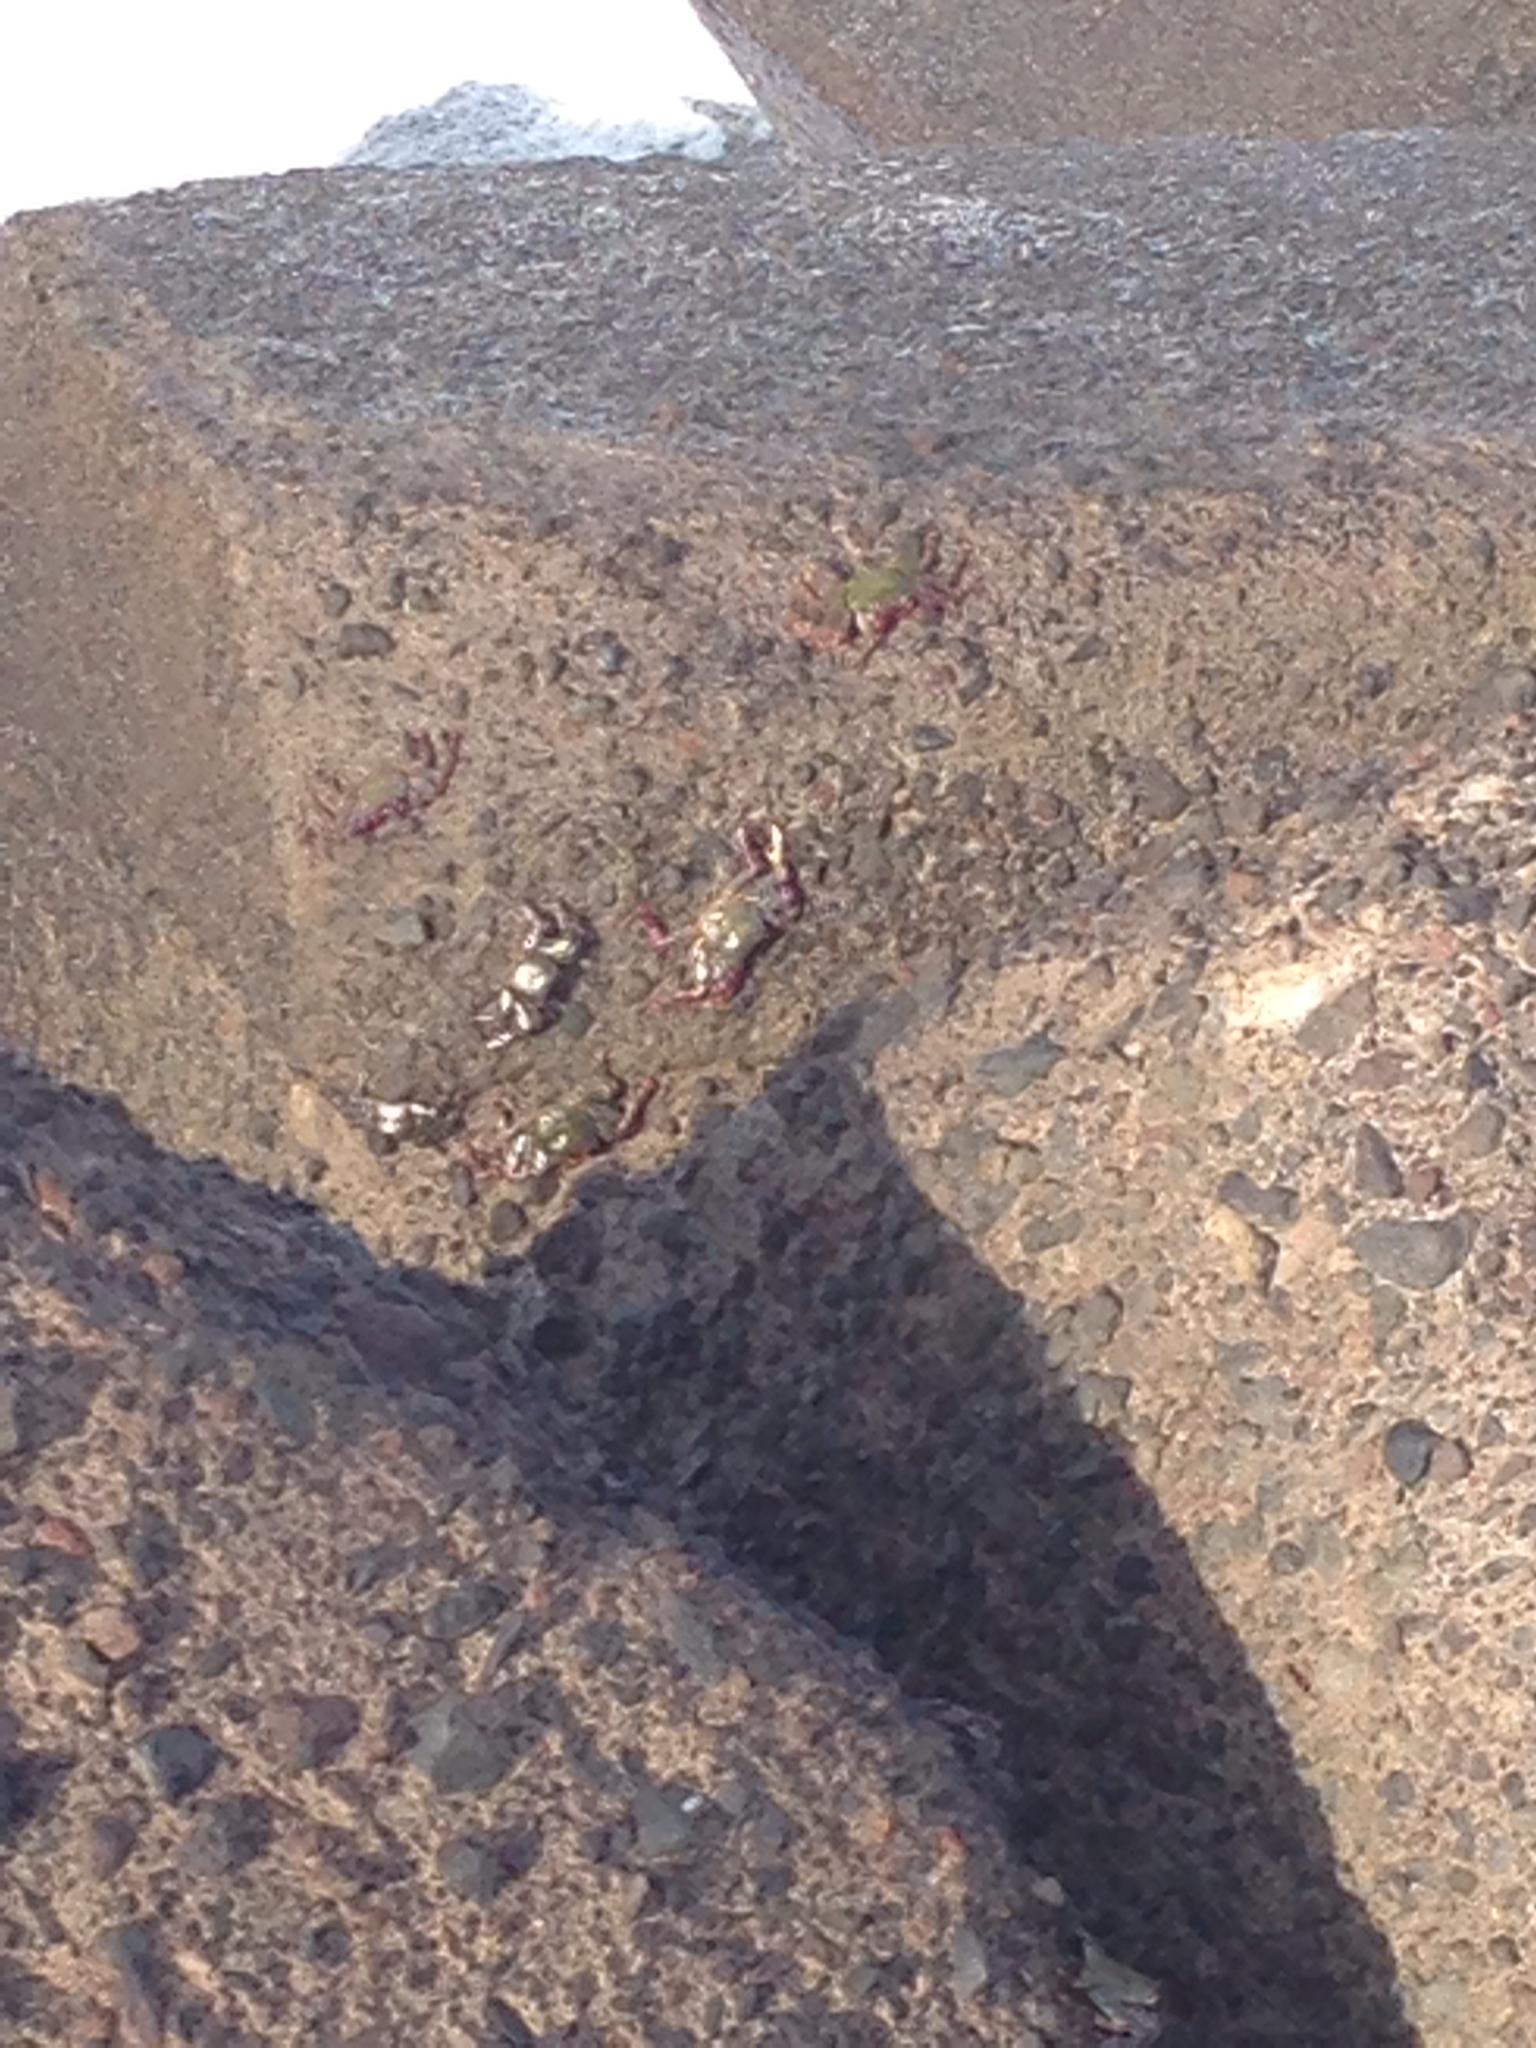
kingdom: Animalia
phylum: Arthropoda
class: Malacostraca
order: Decapoda
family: Grapsidae
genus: Grapsus
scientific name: Grapsus adscensionis
